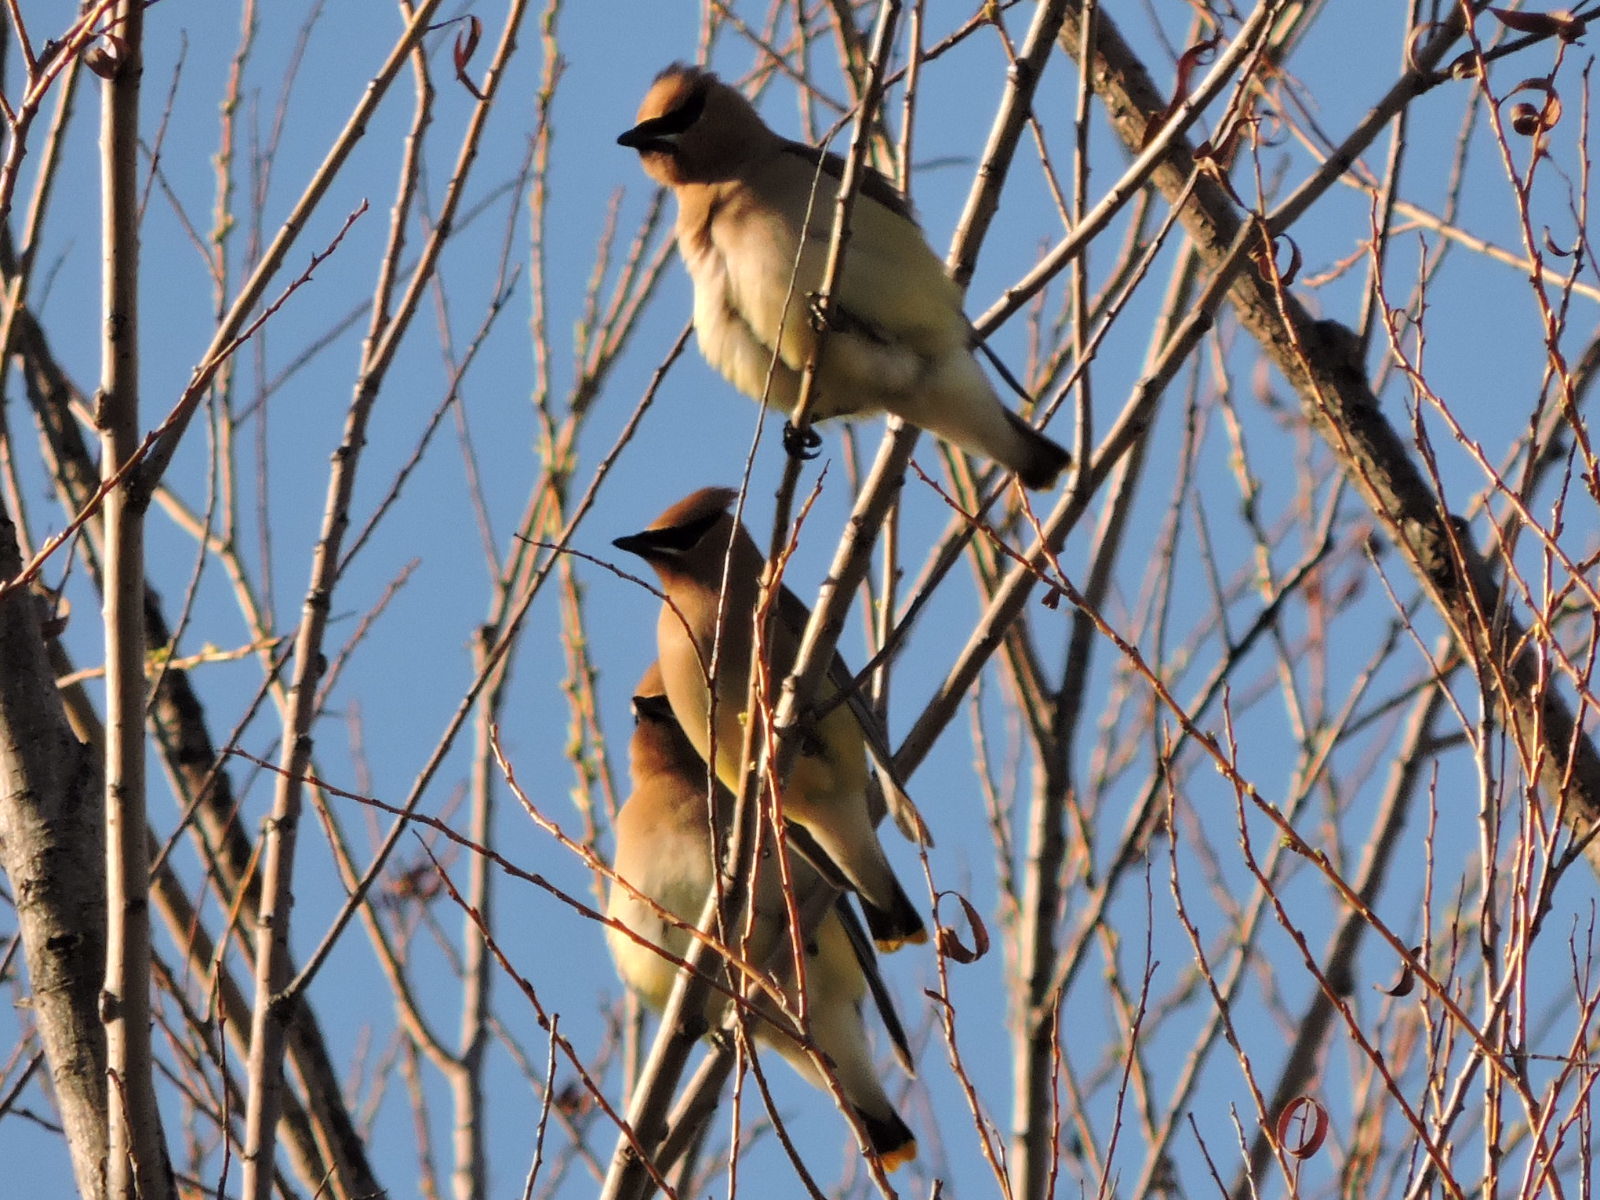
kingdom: Animalia
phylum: Chordata
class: Aves
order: Passeriformes
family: Bombycillidae
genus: Bombycilla
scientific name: Bombycilla cedrorum
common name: Cedar waxwing
